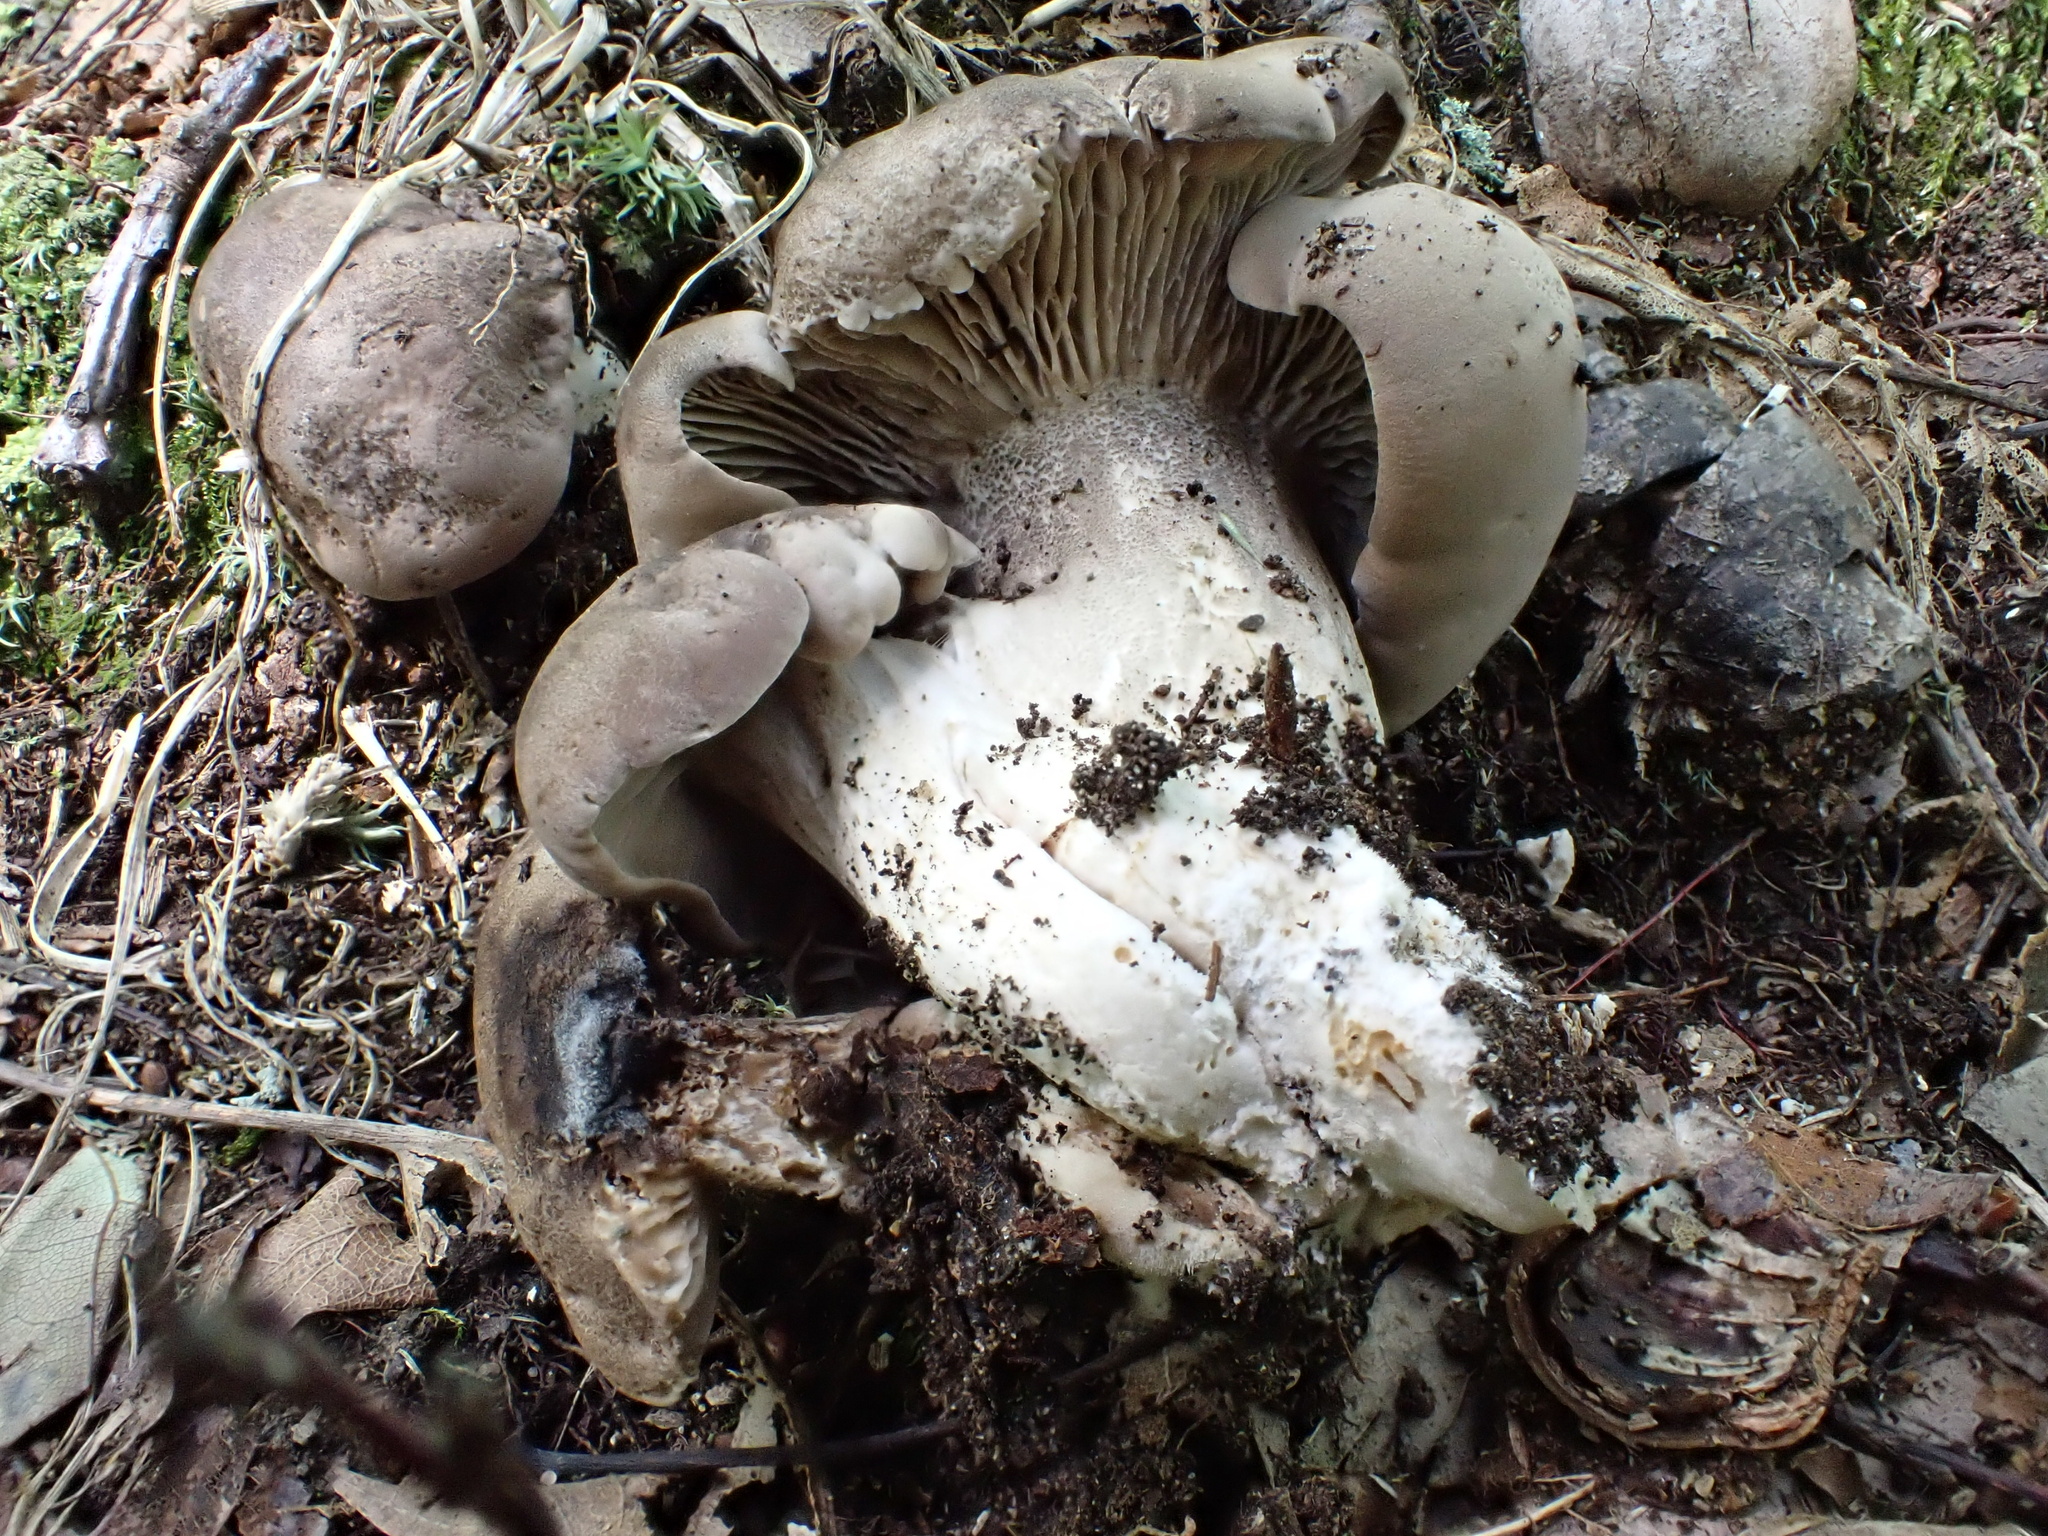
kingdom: Fungi
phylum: Basidiomycota
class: Agaricomycetes
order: Agaricales
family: Tricholomataceae
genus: Pseudotricholoma
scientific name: Pseudotricholoma umbrosum
